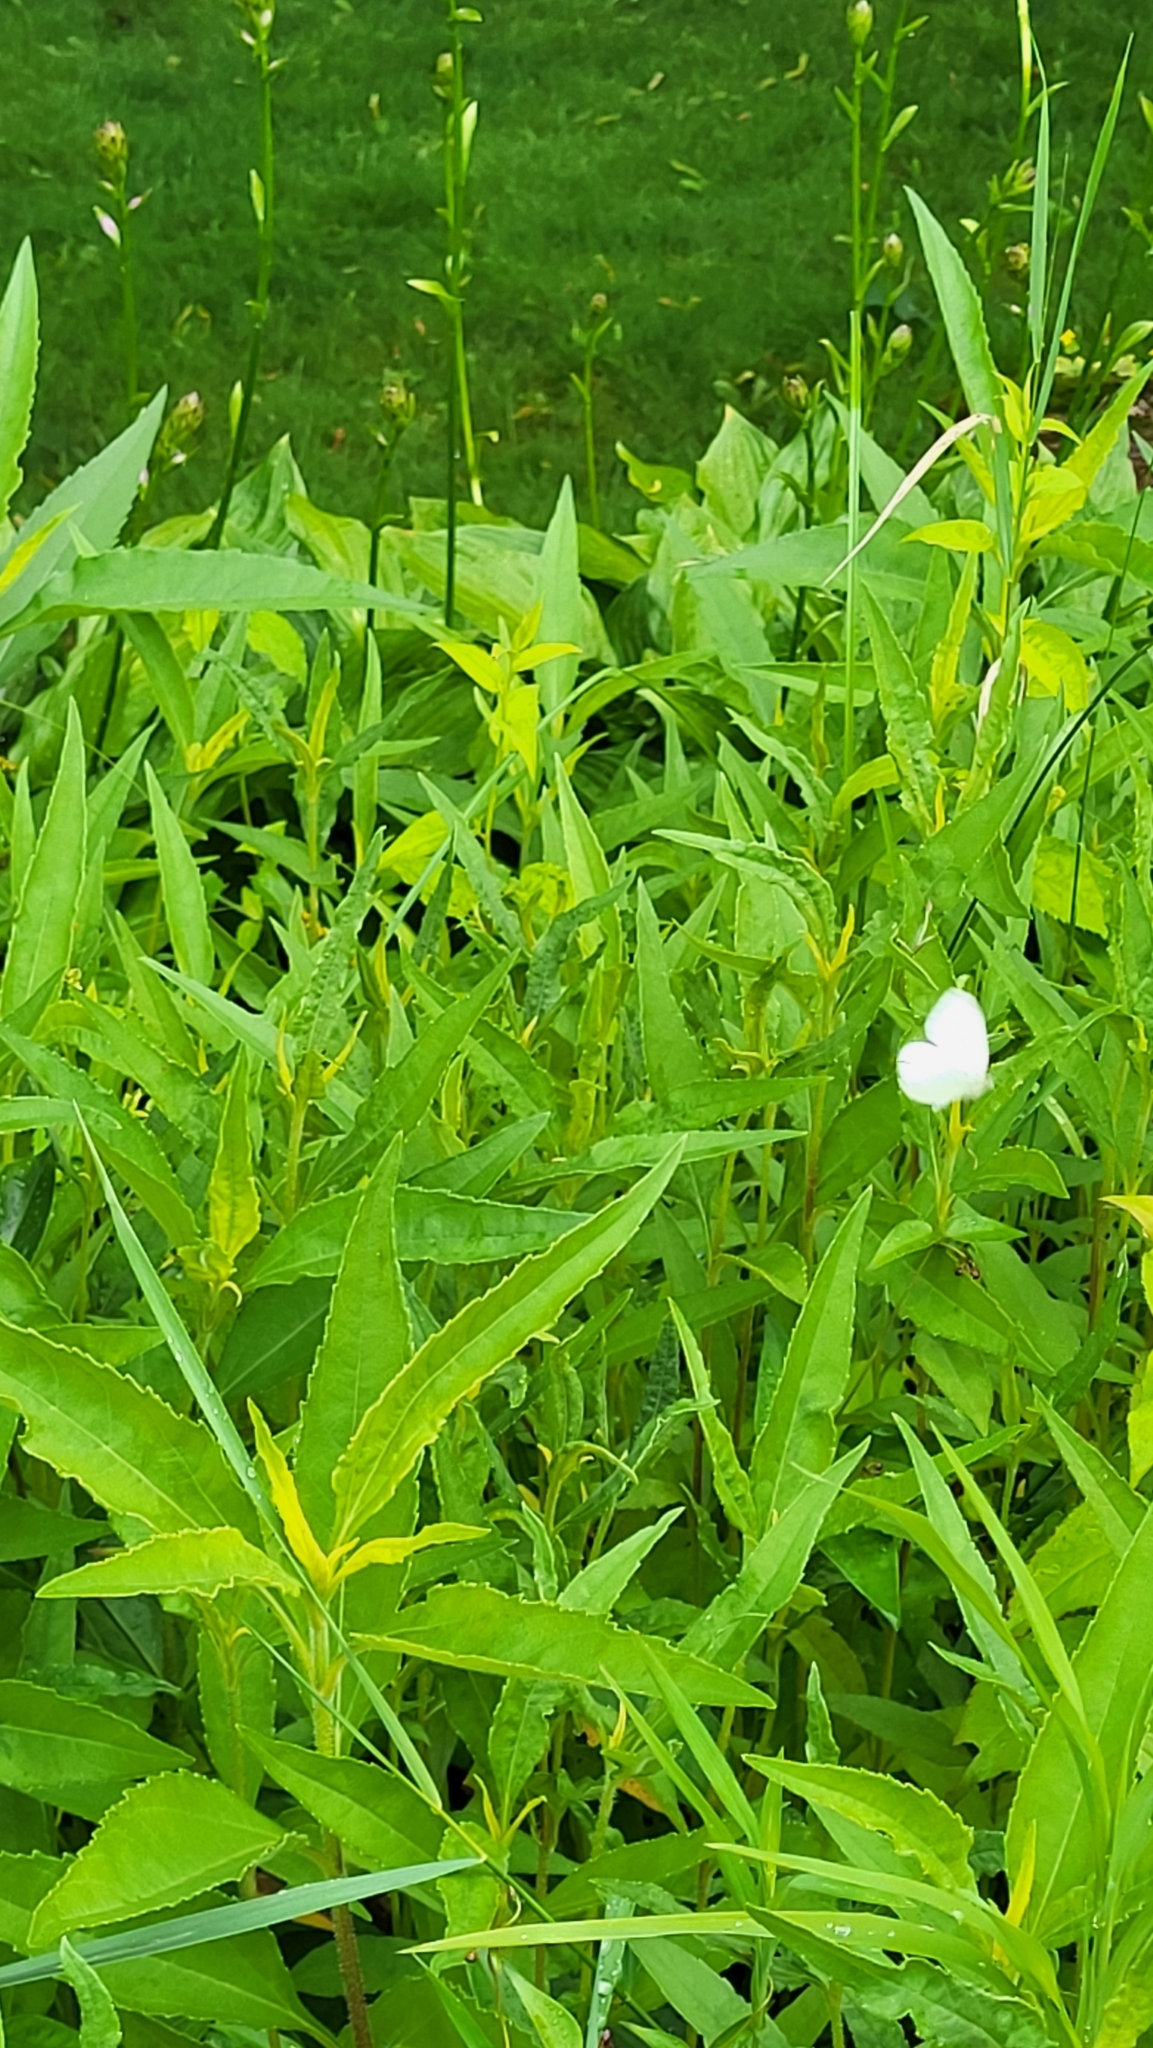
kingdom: Animalia
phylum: Arthropoda
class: Insecta
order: Lepidoptera
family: Pieridae
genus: Pieris
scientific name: Pieris rapae
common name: Small white
